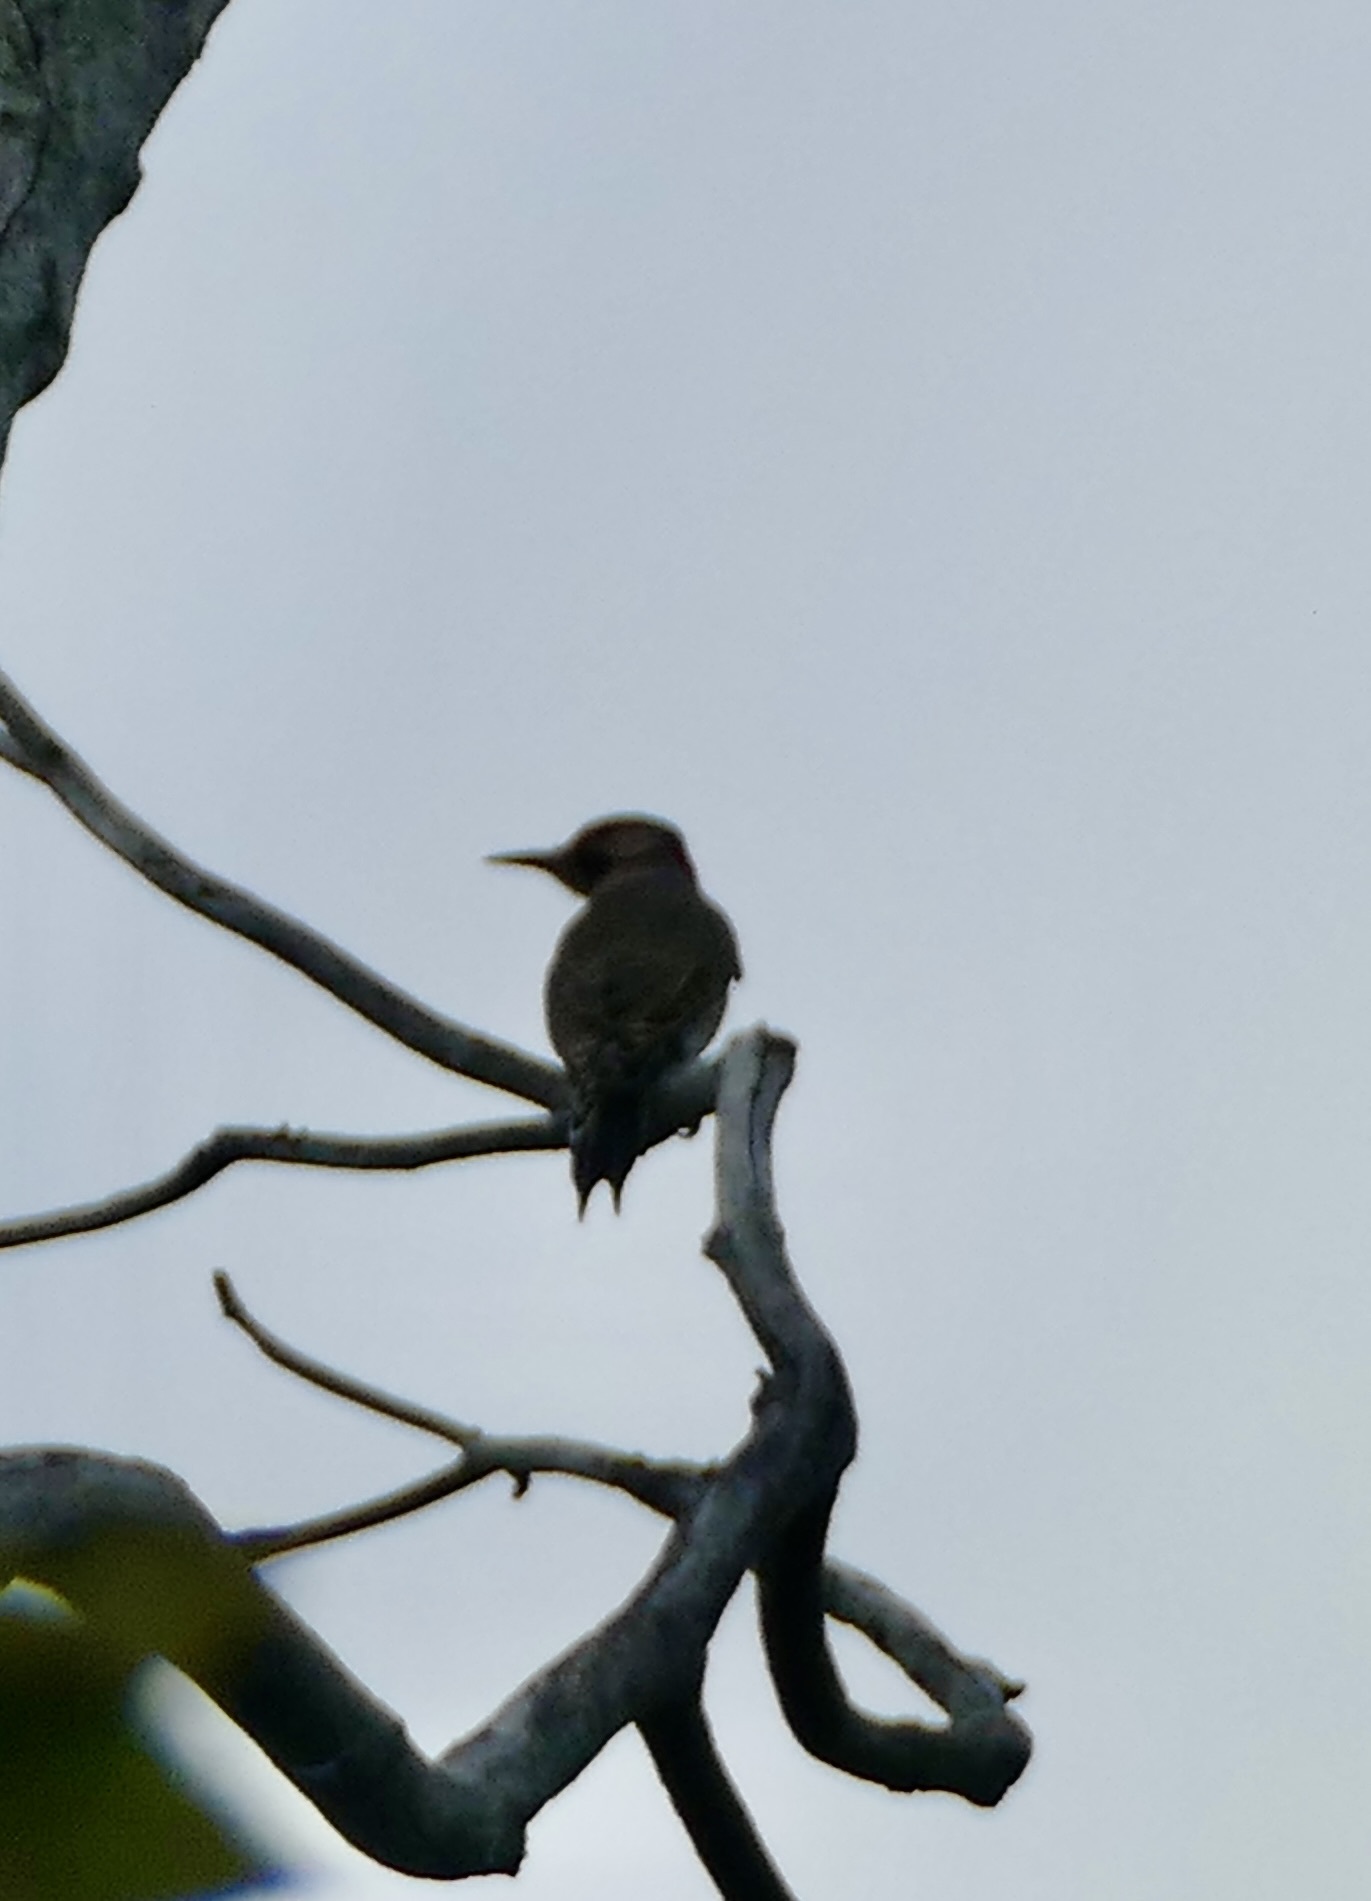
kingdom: Animalia
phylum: Chordata
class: Aves
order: Piciformes
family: Picidae
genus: Colaptes
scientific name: Colaptes auratus
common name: Northern flicker
